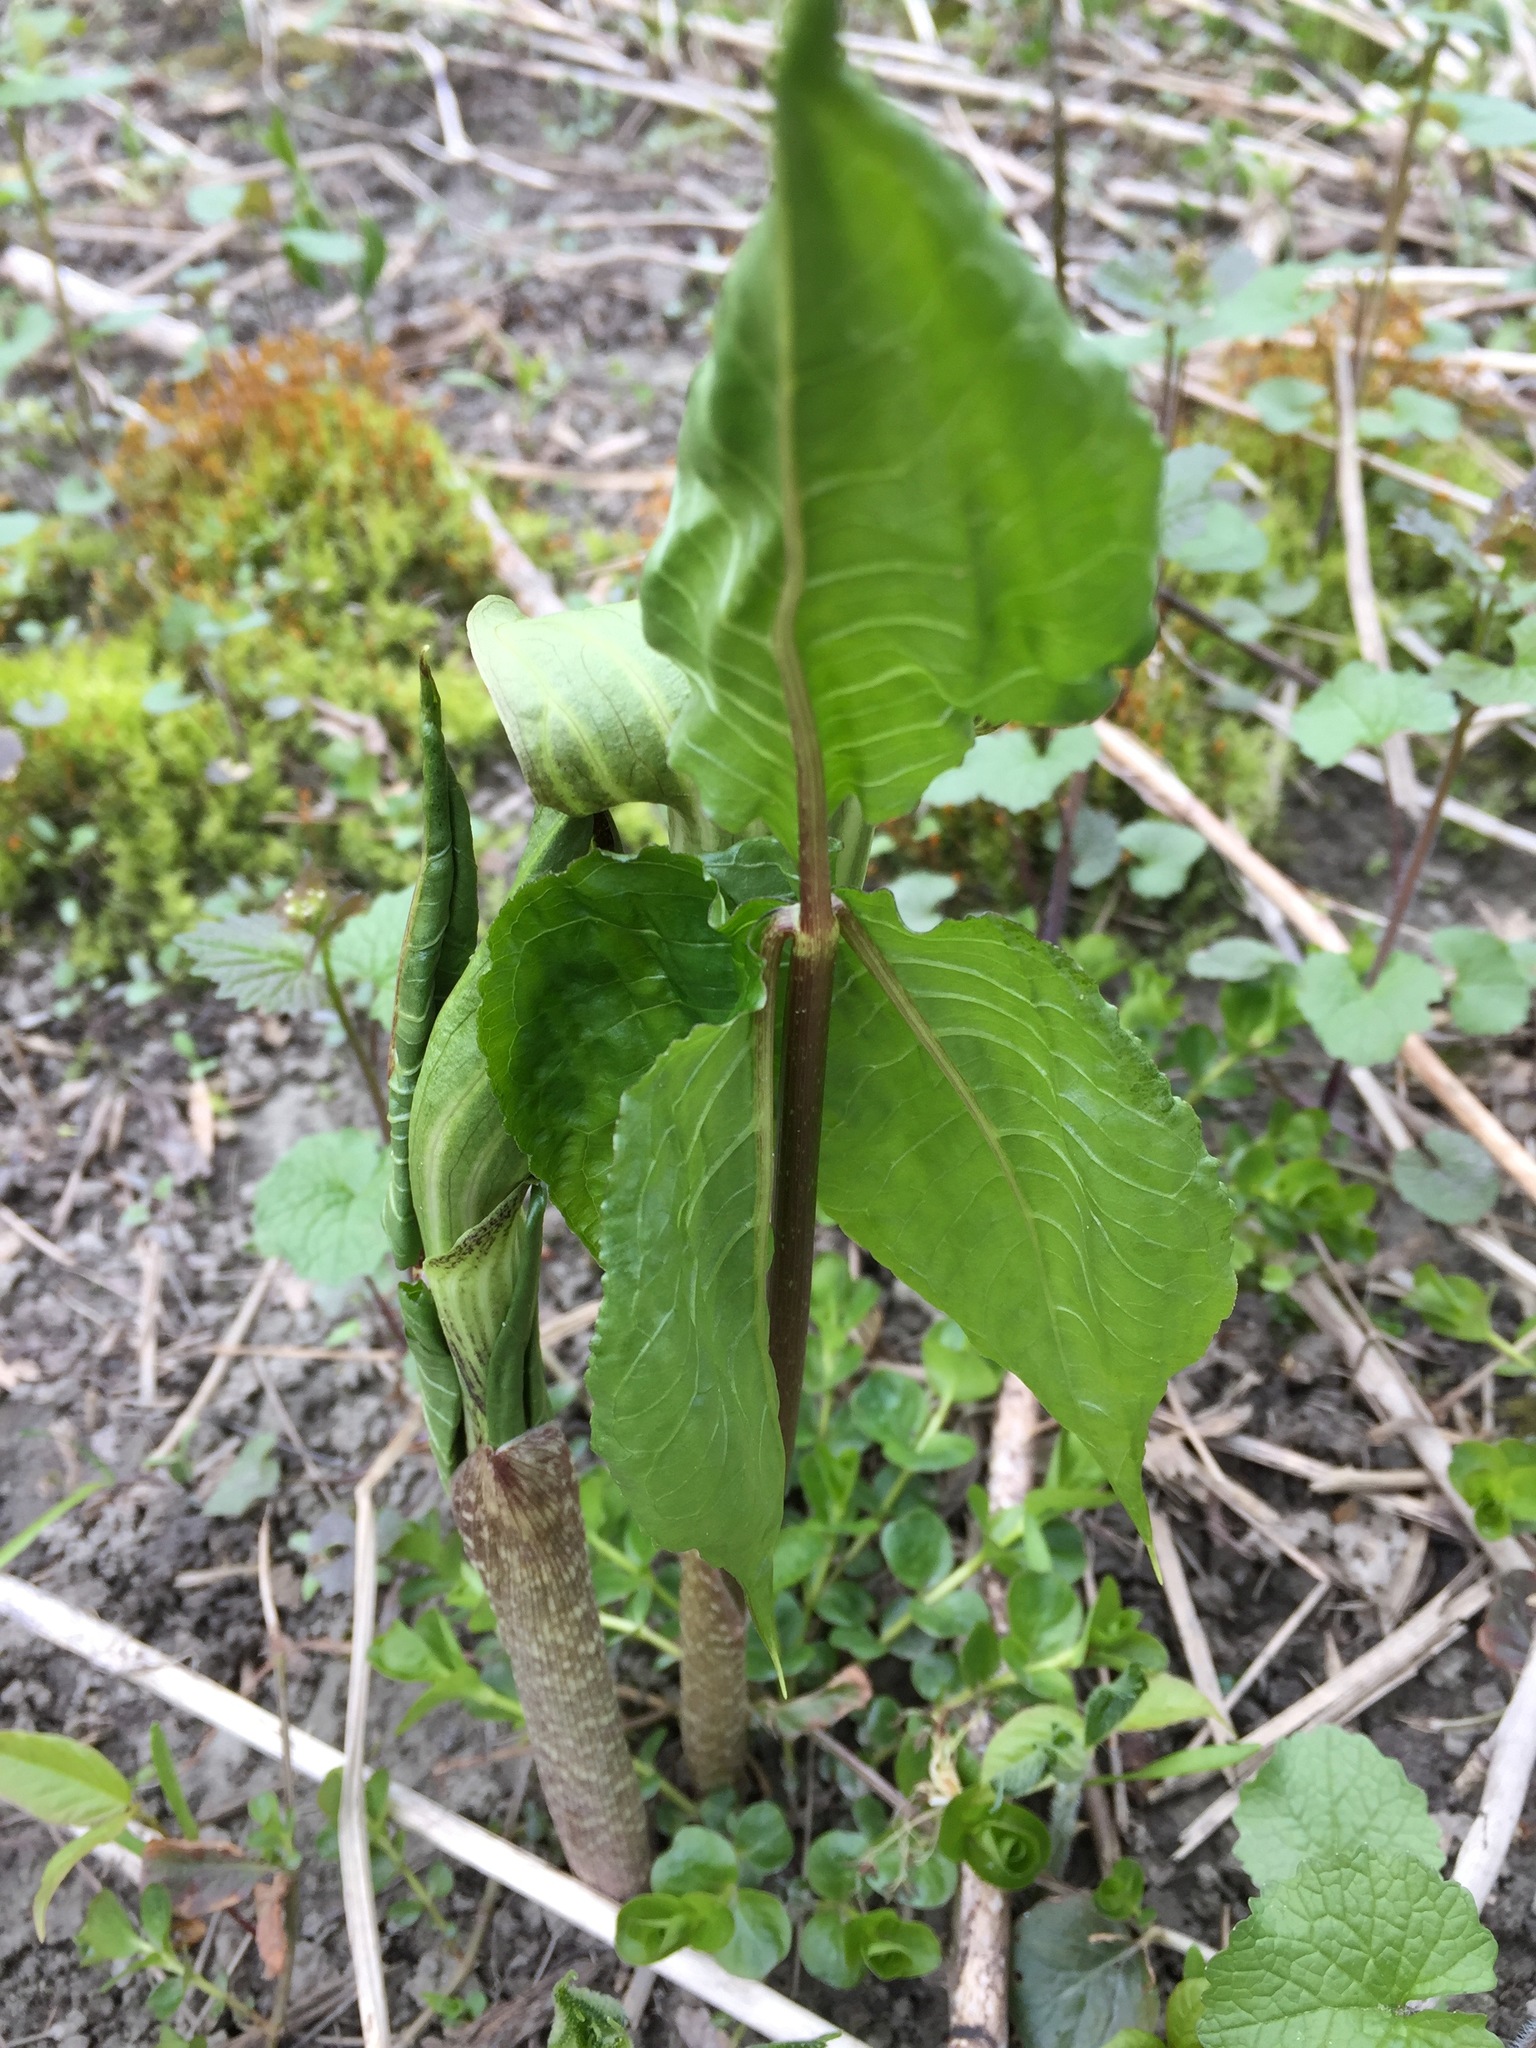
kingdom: Plantae
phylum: Tracheophyta
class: Liliopsida
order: Alismatales
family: Araceae
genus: Arisaema
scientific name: Arisaema triphyllum
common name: Jack-in-the-pulpit
